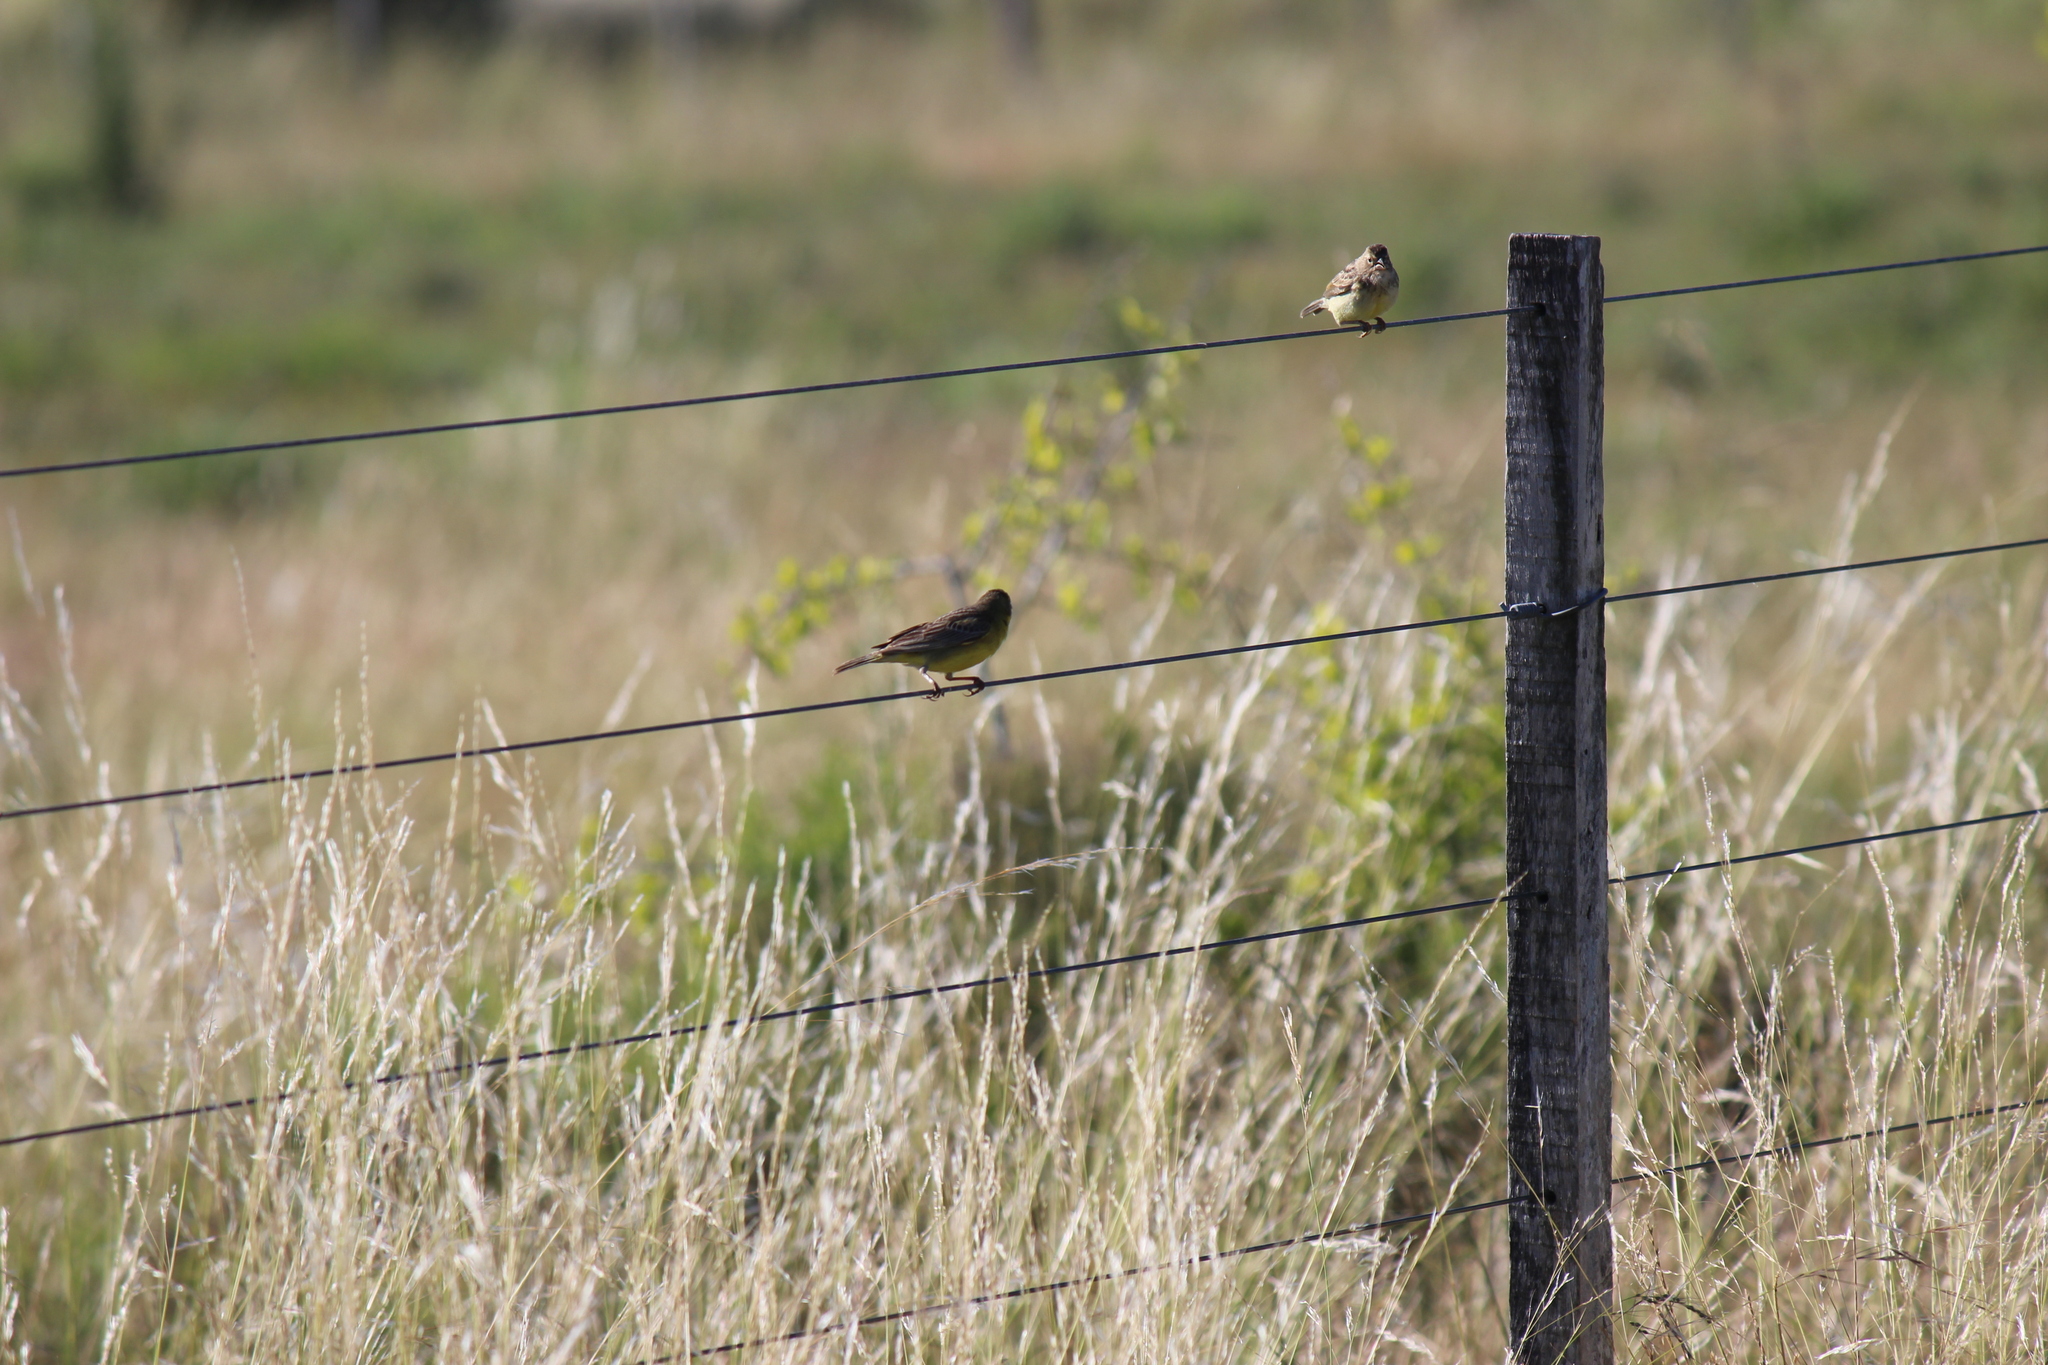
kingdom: Animalia
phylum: Chordata
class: Aves
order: Passeriformes
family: Thraupidae
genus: Sicalis
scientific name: Sicalis luteola
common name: Grassland yellow-finch
